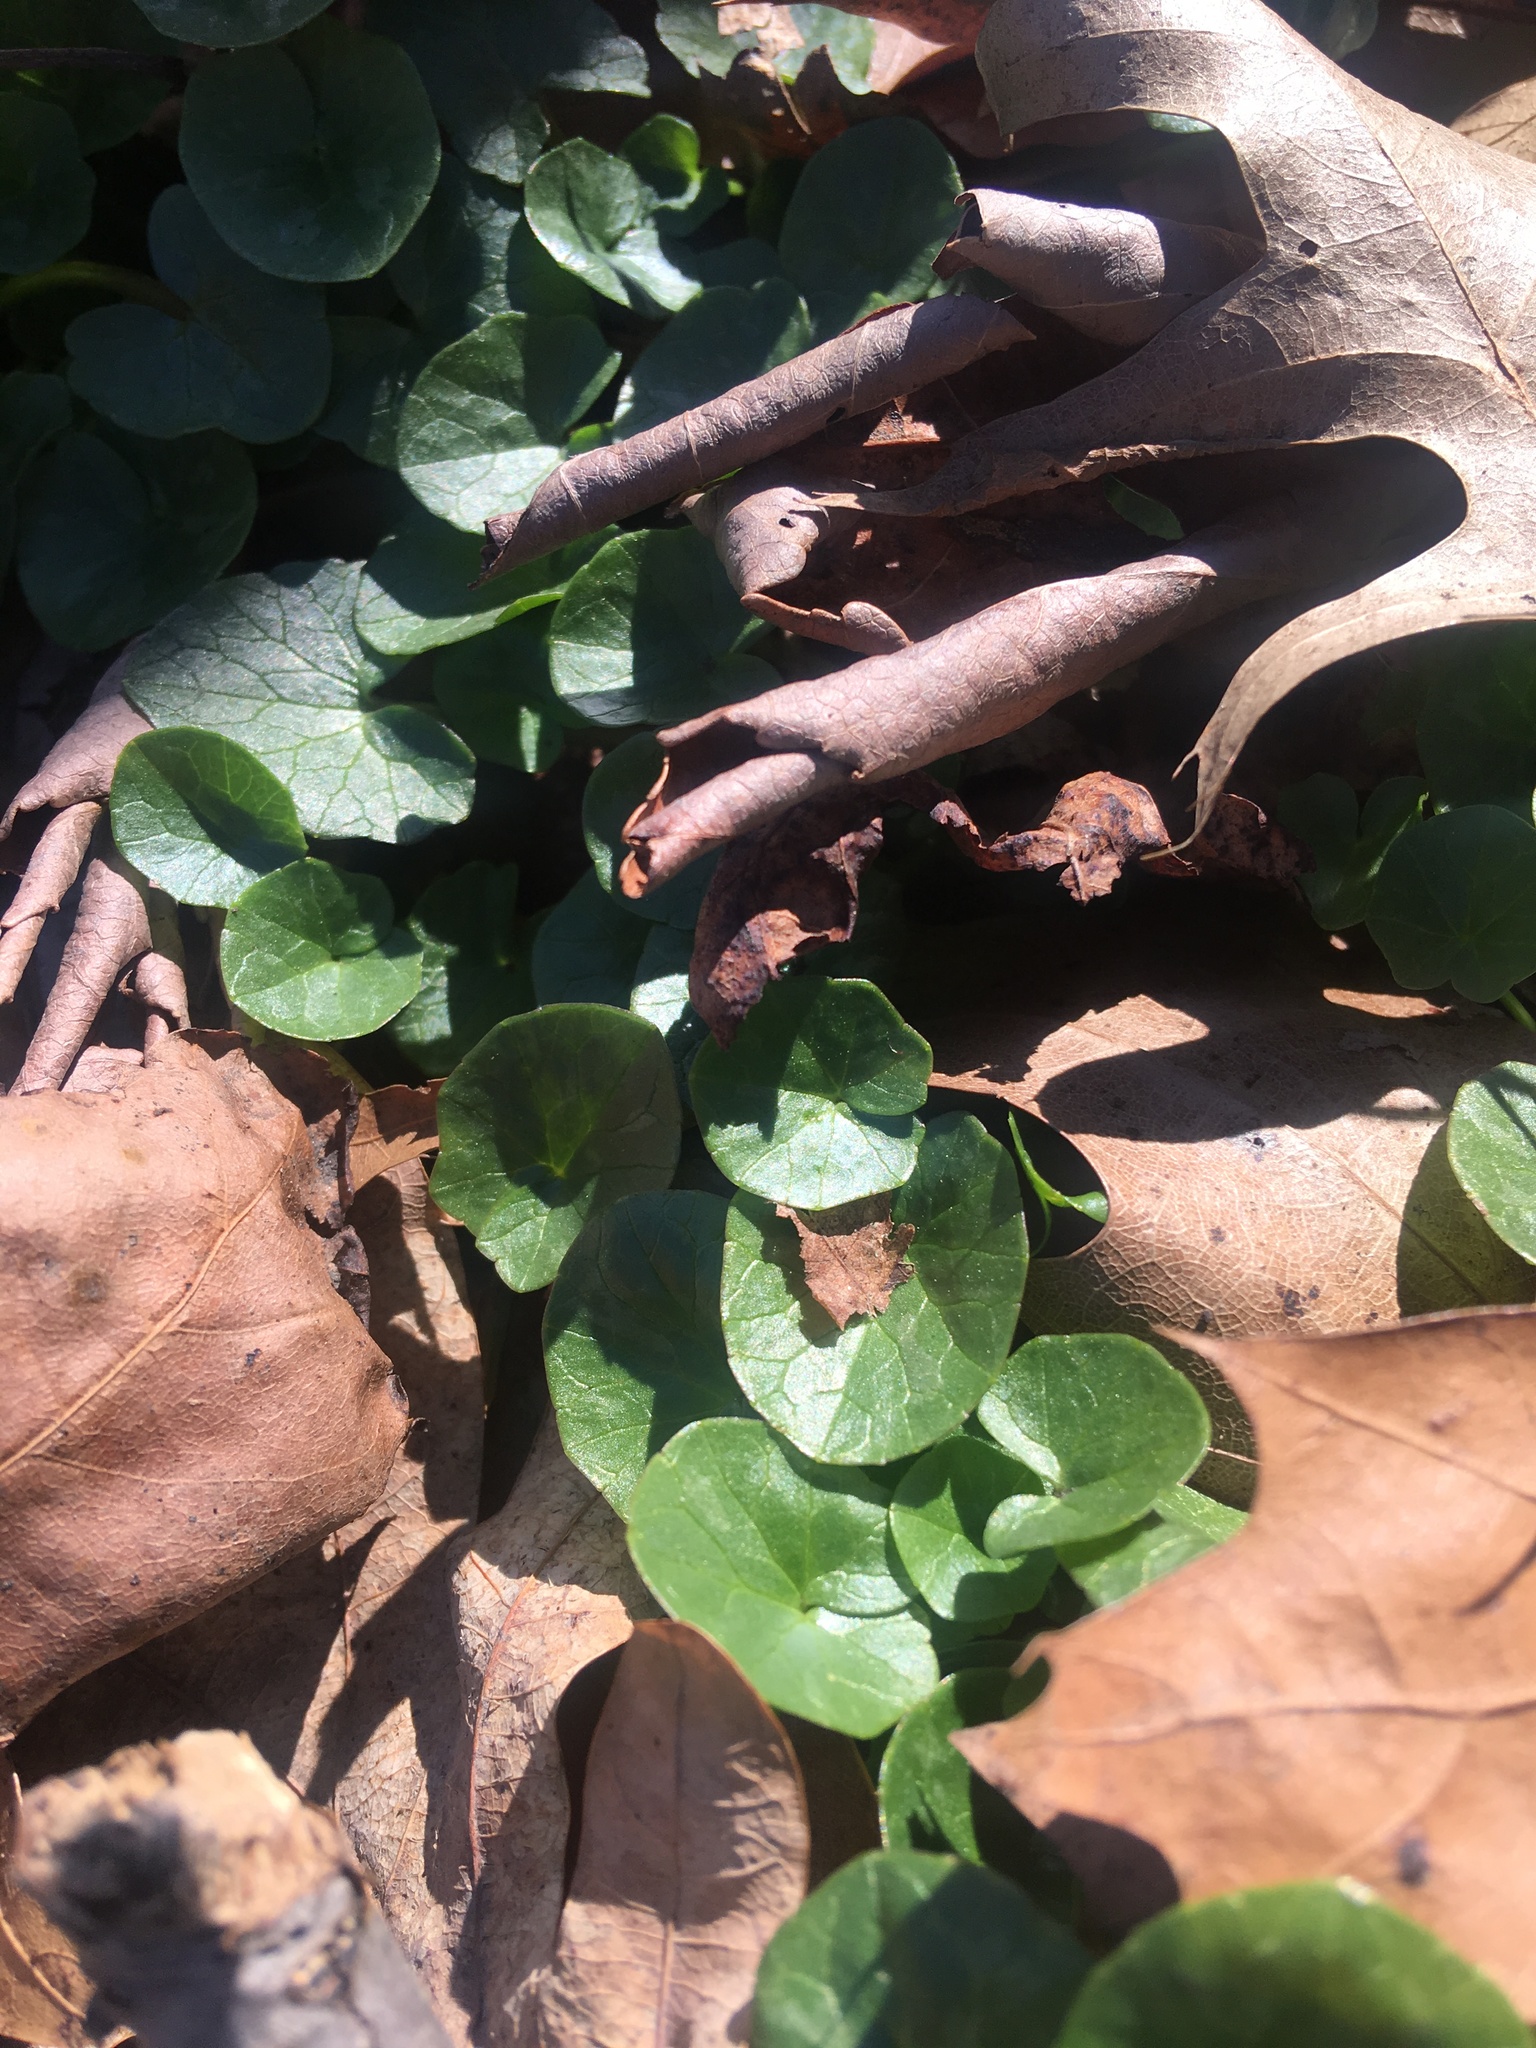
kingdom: Plantae
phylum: Tracheophyta
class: Magnoliopsida
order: Ranunculales
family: Ranunculaceae
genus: Ficaria
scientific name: Ficaria verna
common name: Lesser celandine
